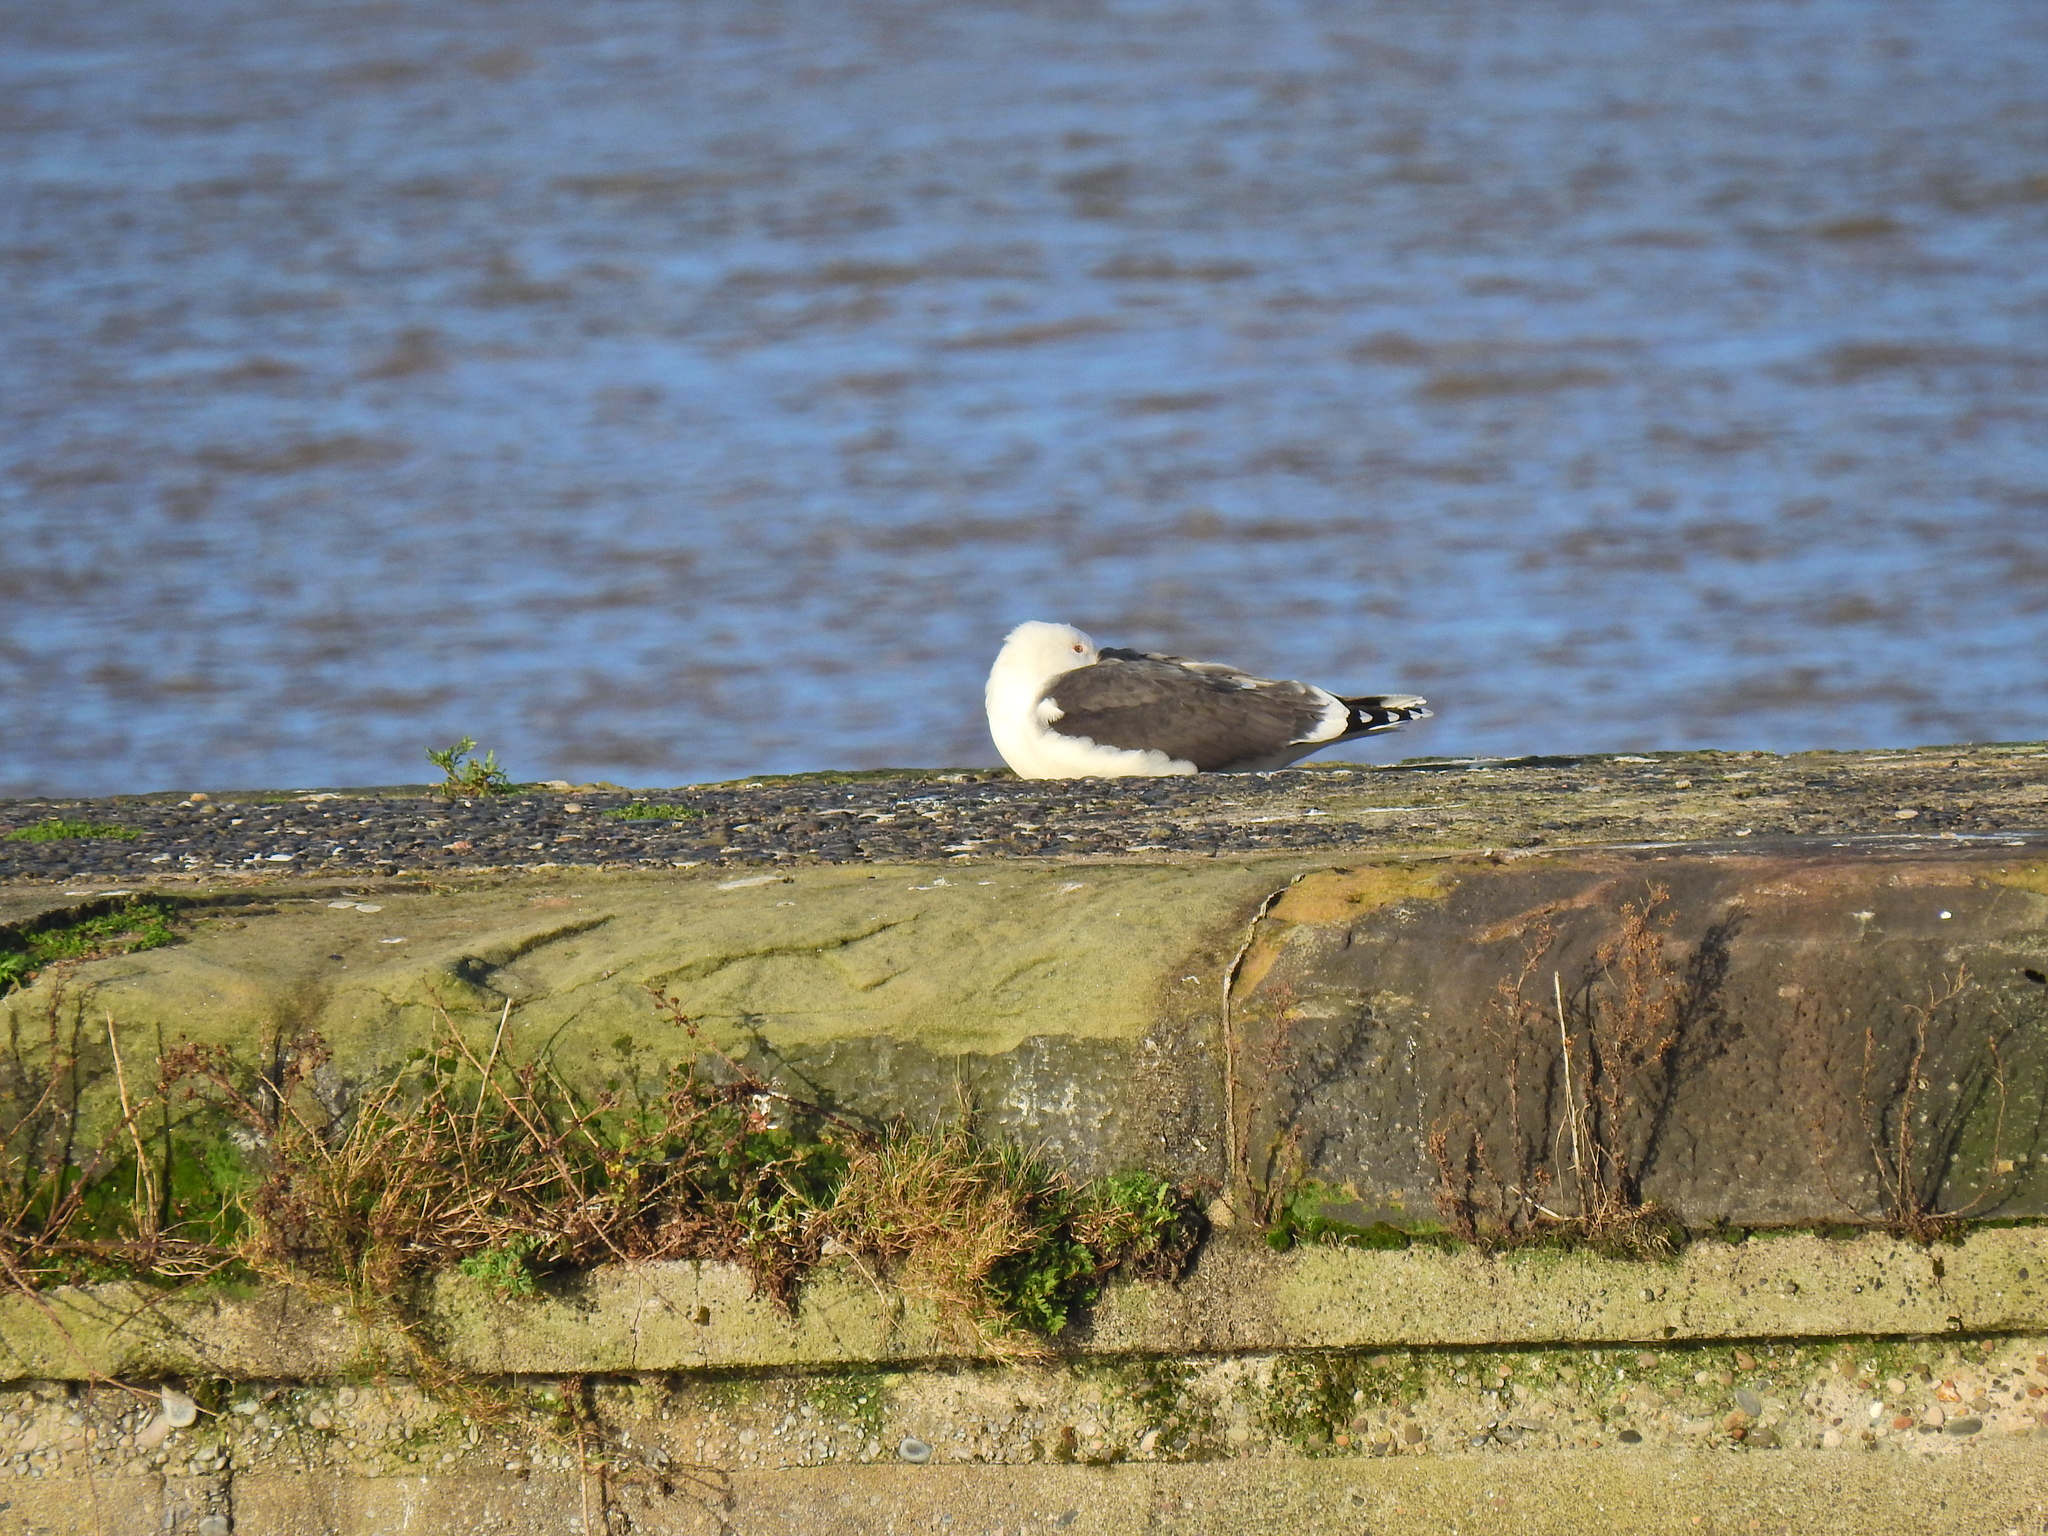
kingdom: Animalia
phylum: Chordata
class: Aves
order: Charadriiformes
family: Laridae
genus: Larus
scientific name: Larus fuscus
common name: Lesser black-backed gull
